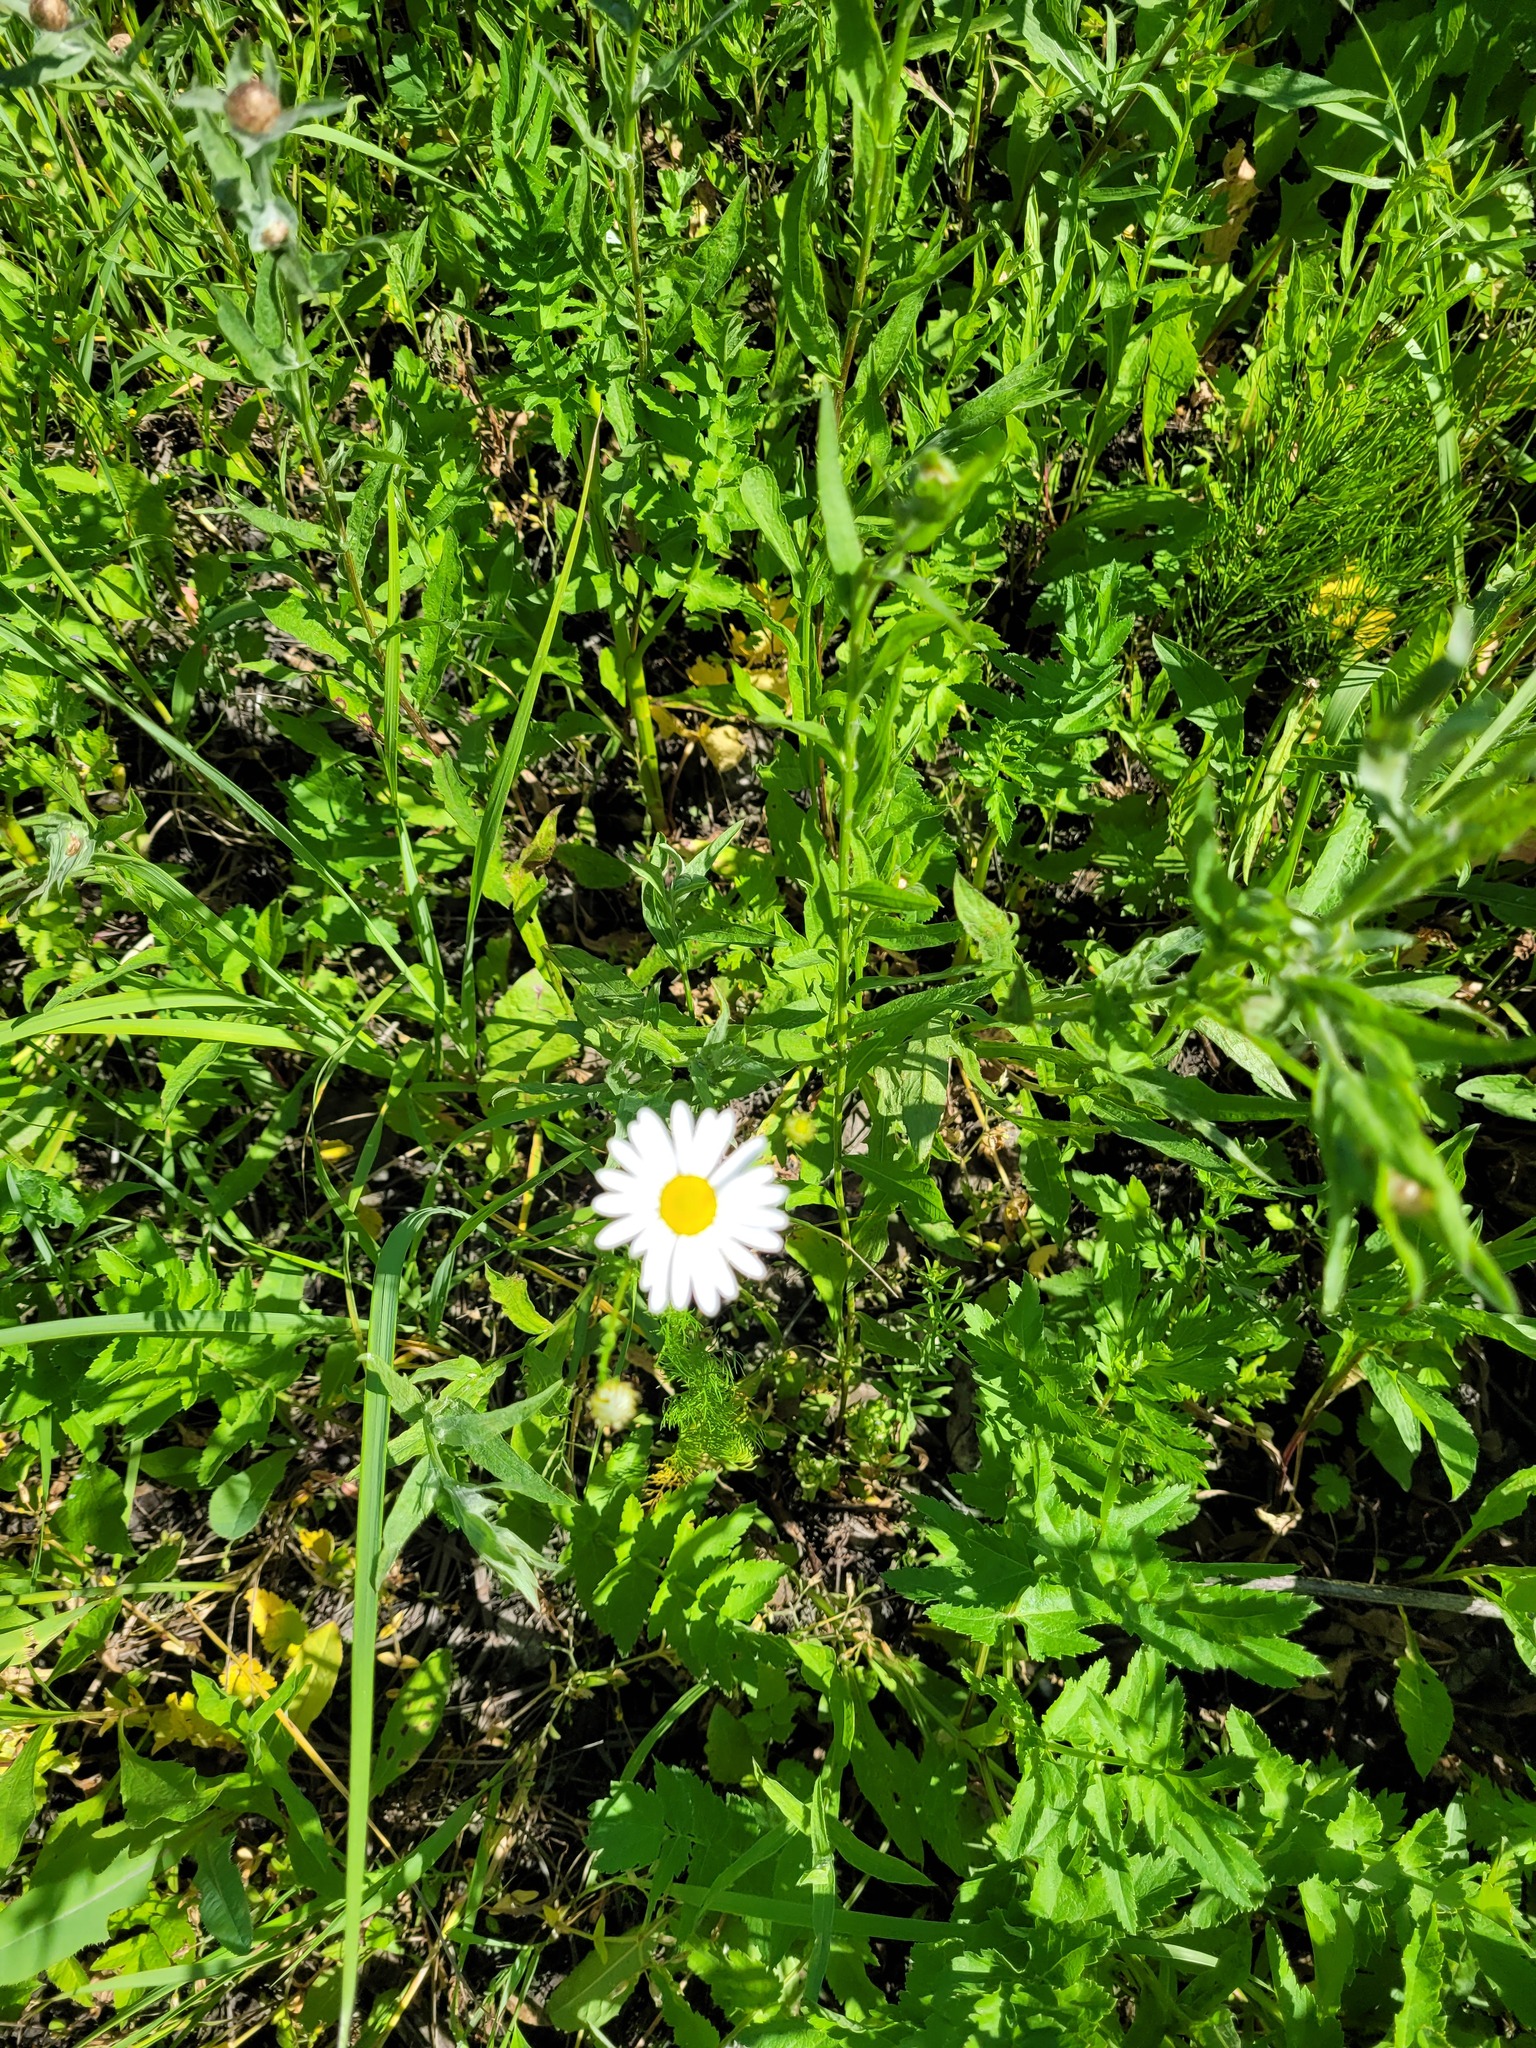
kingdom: Plantae
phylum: Tracheophyta
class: Magnoliopsida
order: Asterales
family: Asteraceae
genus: Tripleurospermum
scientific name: Tripleurospermum inodorum
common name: Scentless mayweed
